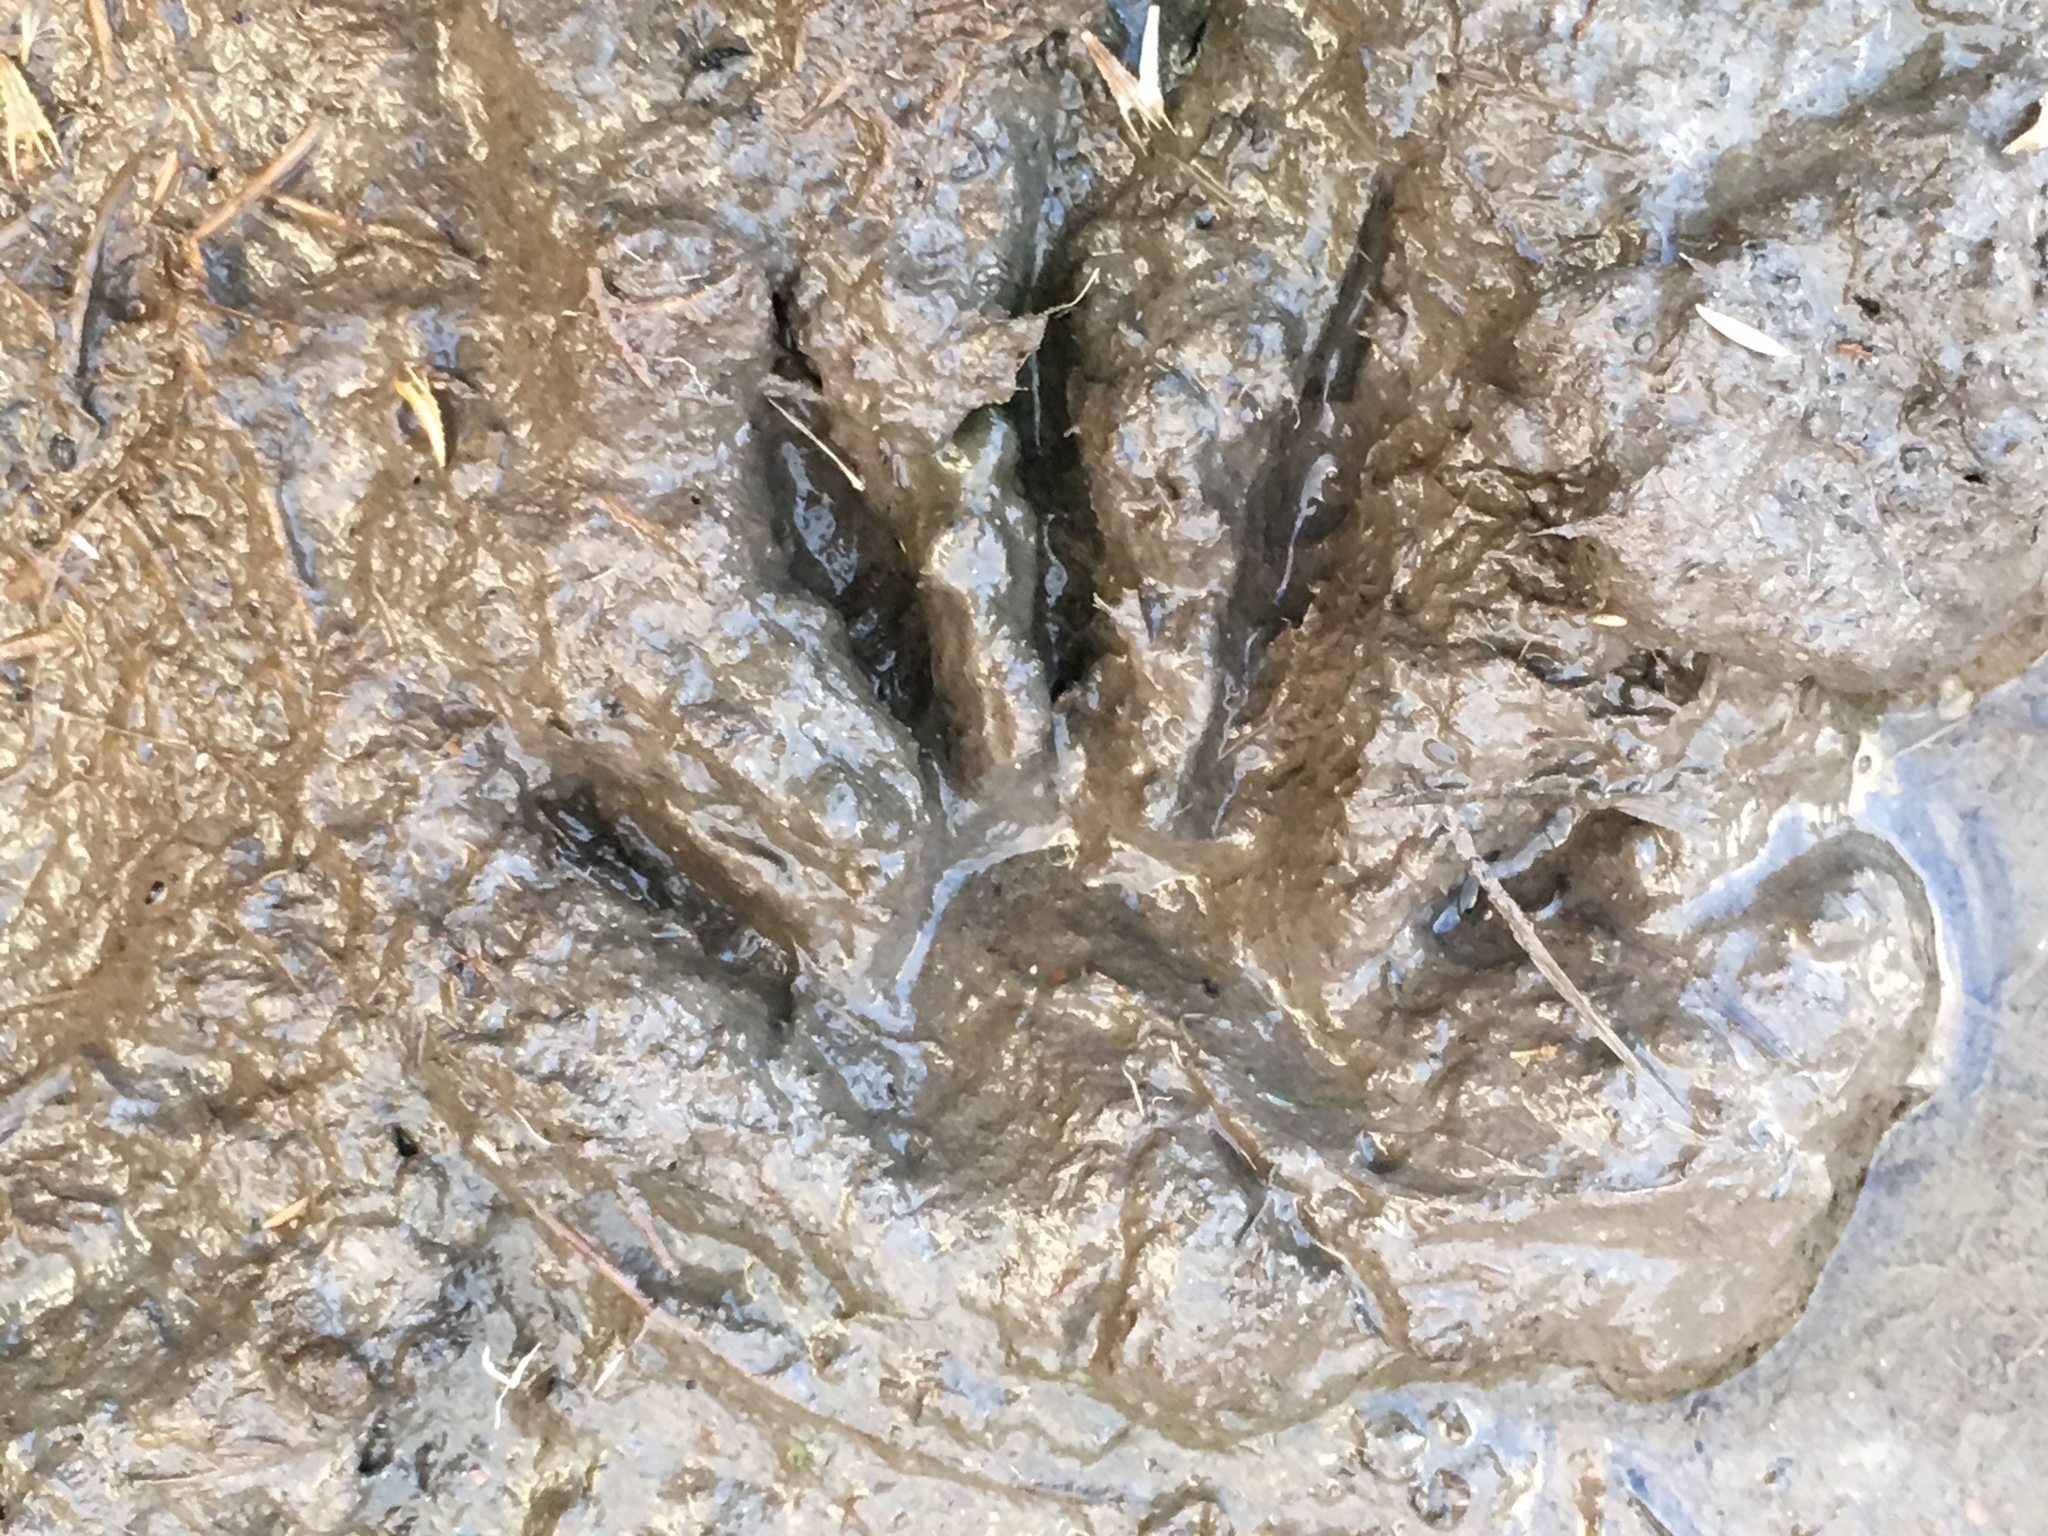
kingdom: Animalia
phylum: Chordata
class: Mammalia
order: Carnivora
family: Procyonidae
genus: Procyon
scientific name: Procyon lotor
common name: Raccoon
